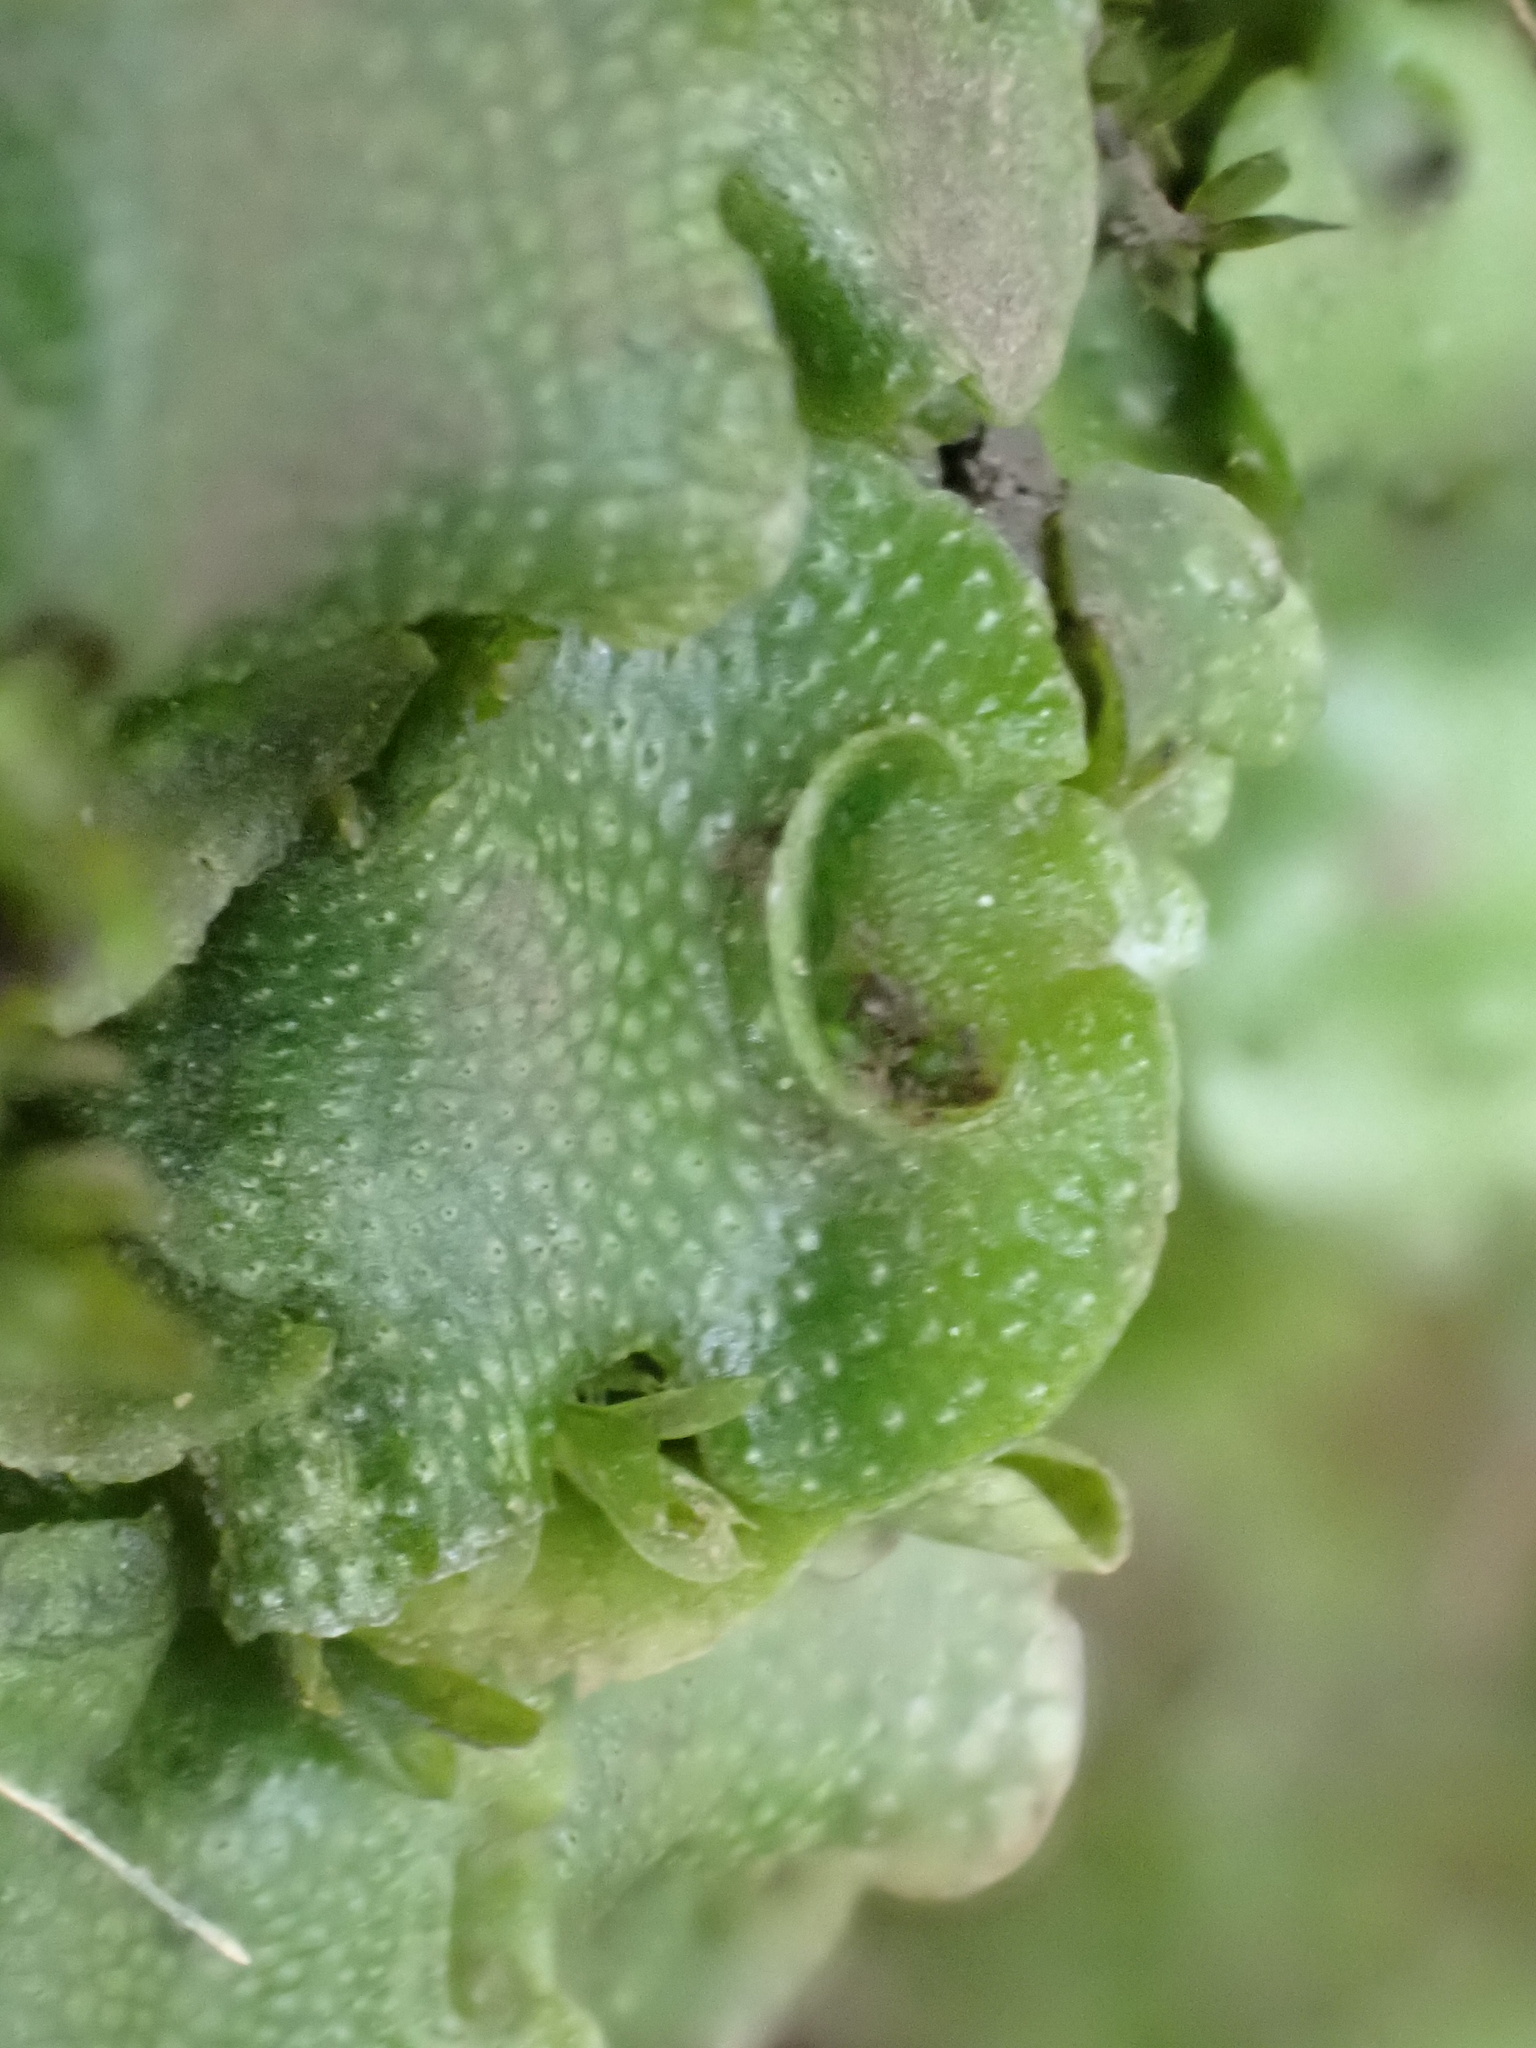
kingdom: Plantae
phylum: Marchantiophyta
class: Marchantiopsida
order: Lunulariales
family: Lunulariaceae
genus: Lunularia
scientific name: Lunularia cruciata
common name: Crescent-cup liverwort
